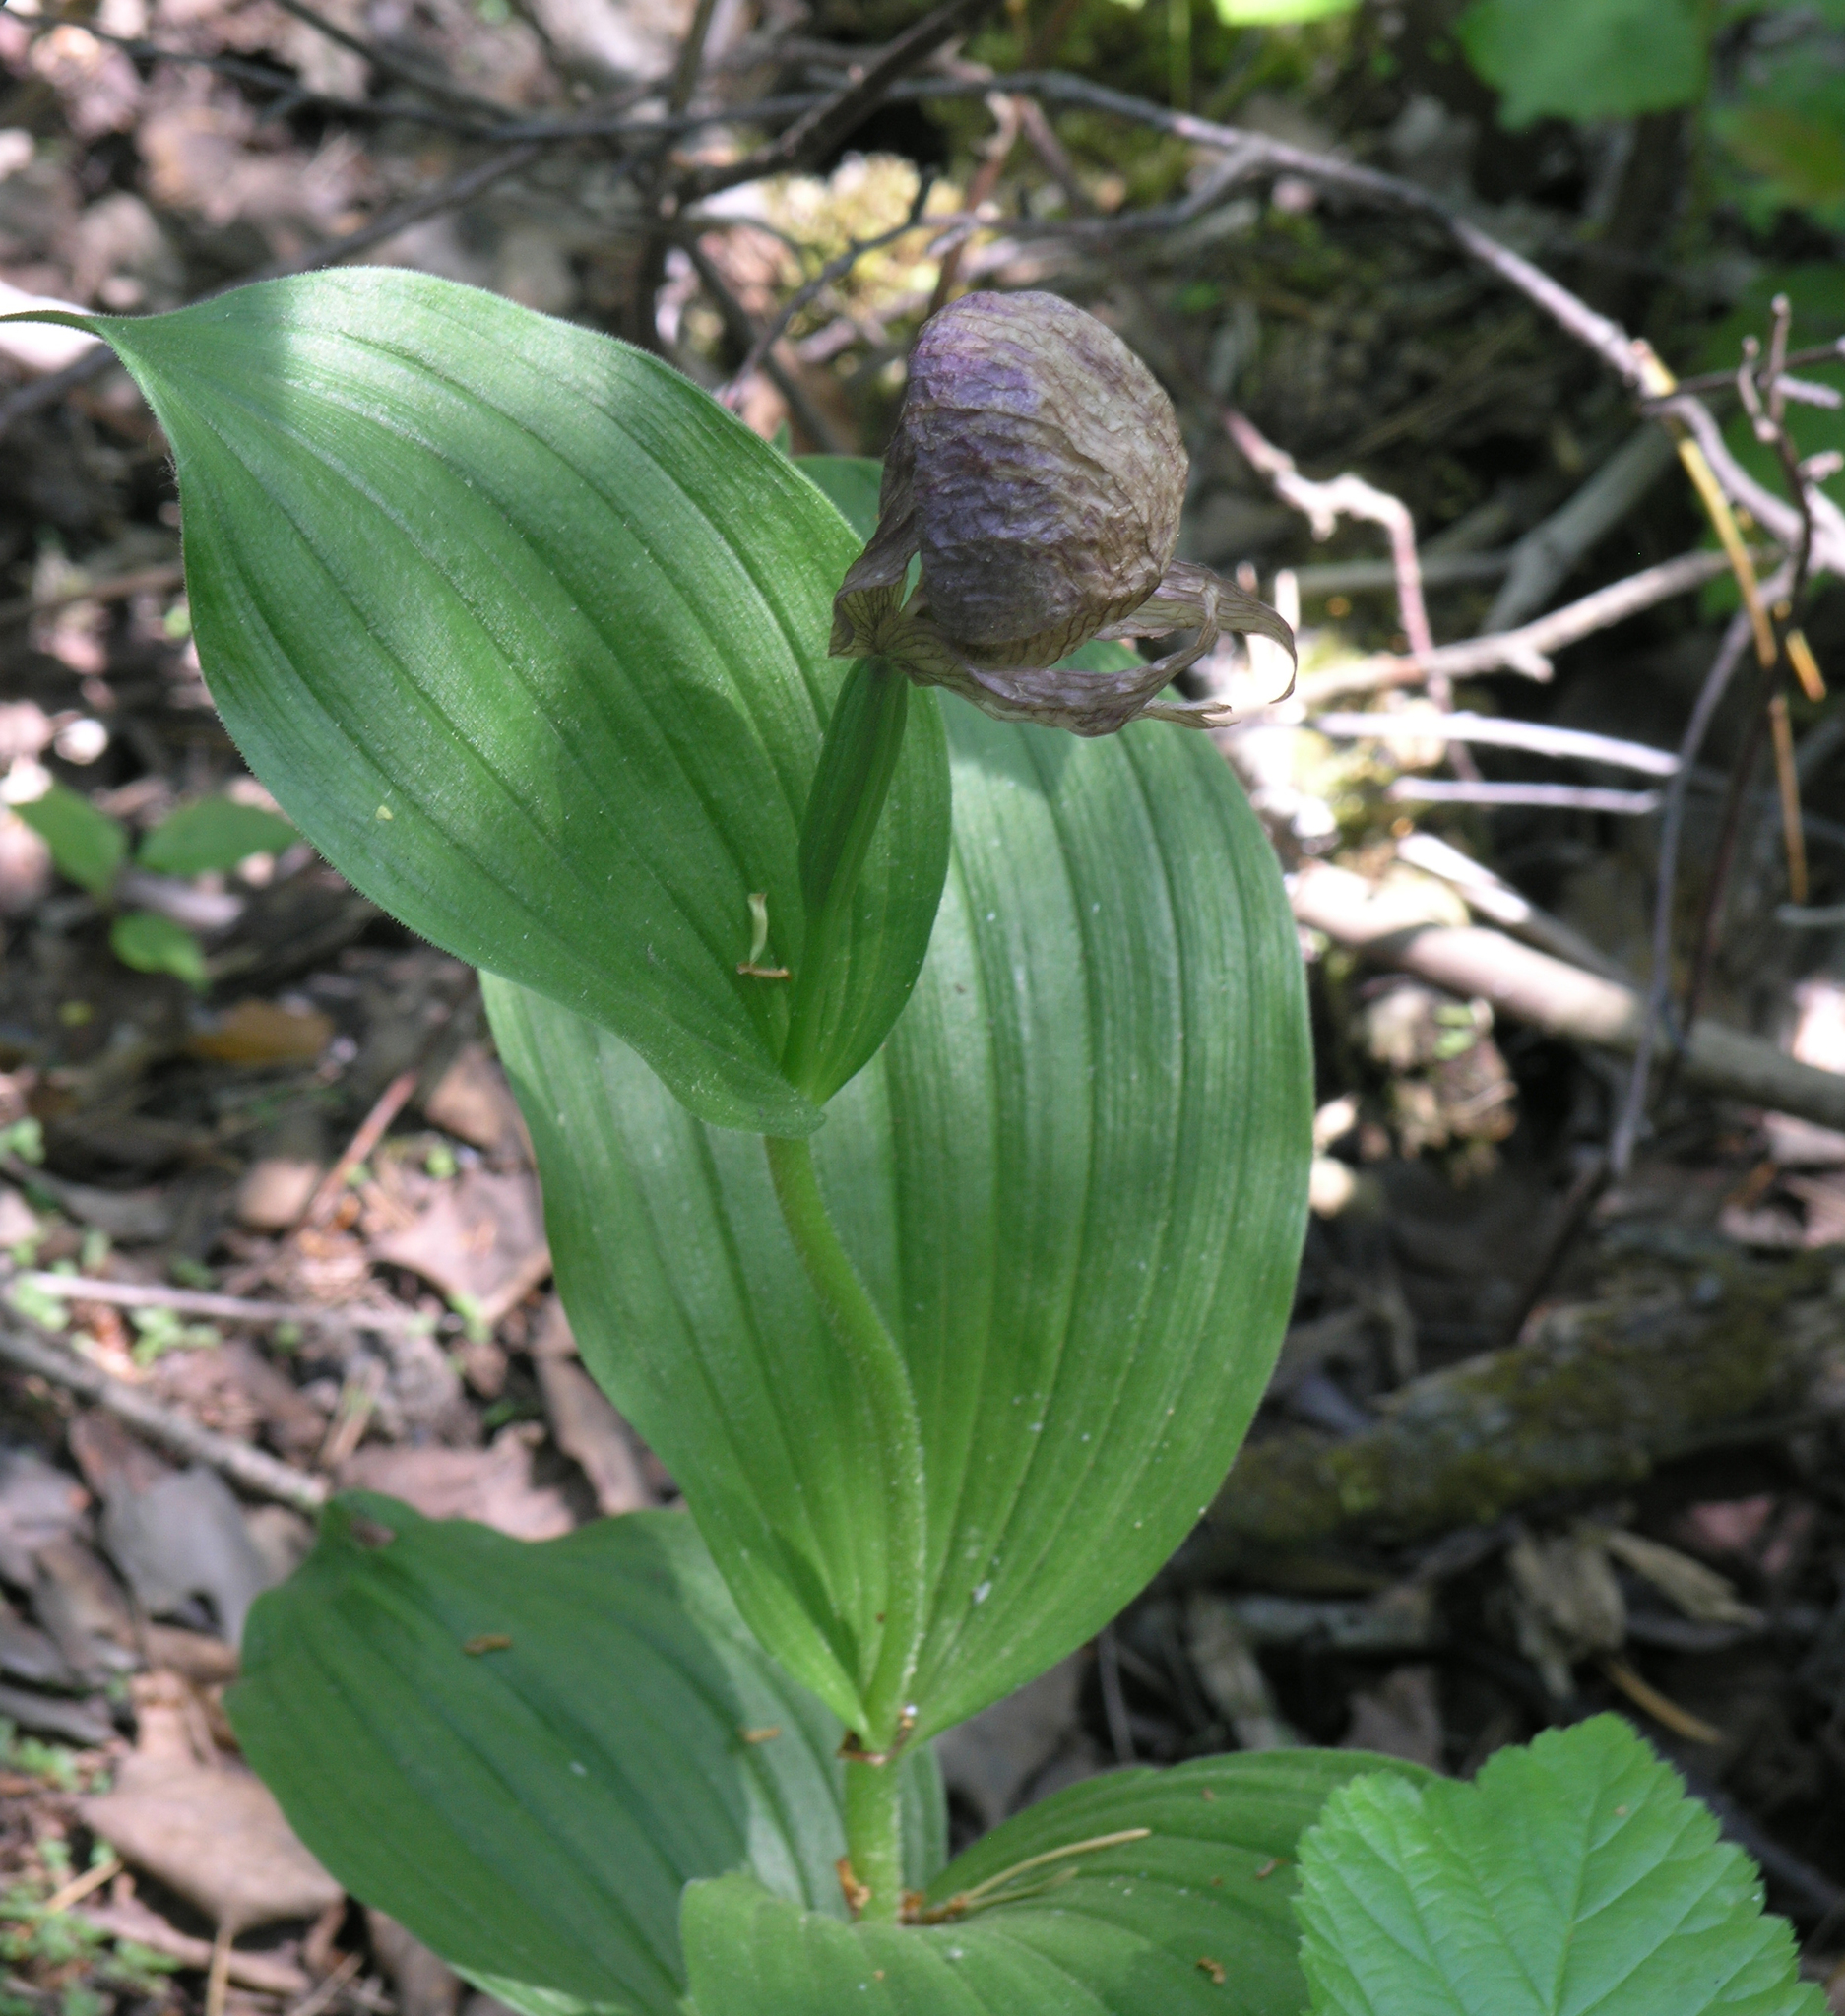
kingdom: Plantae
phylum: Tracheophyta
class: Liliopsida
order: Asparagales
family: Orchidaceae
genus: Cypripedium
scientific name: Cypripedium macranthos
